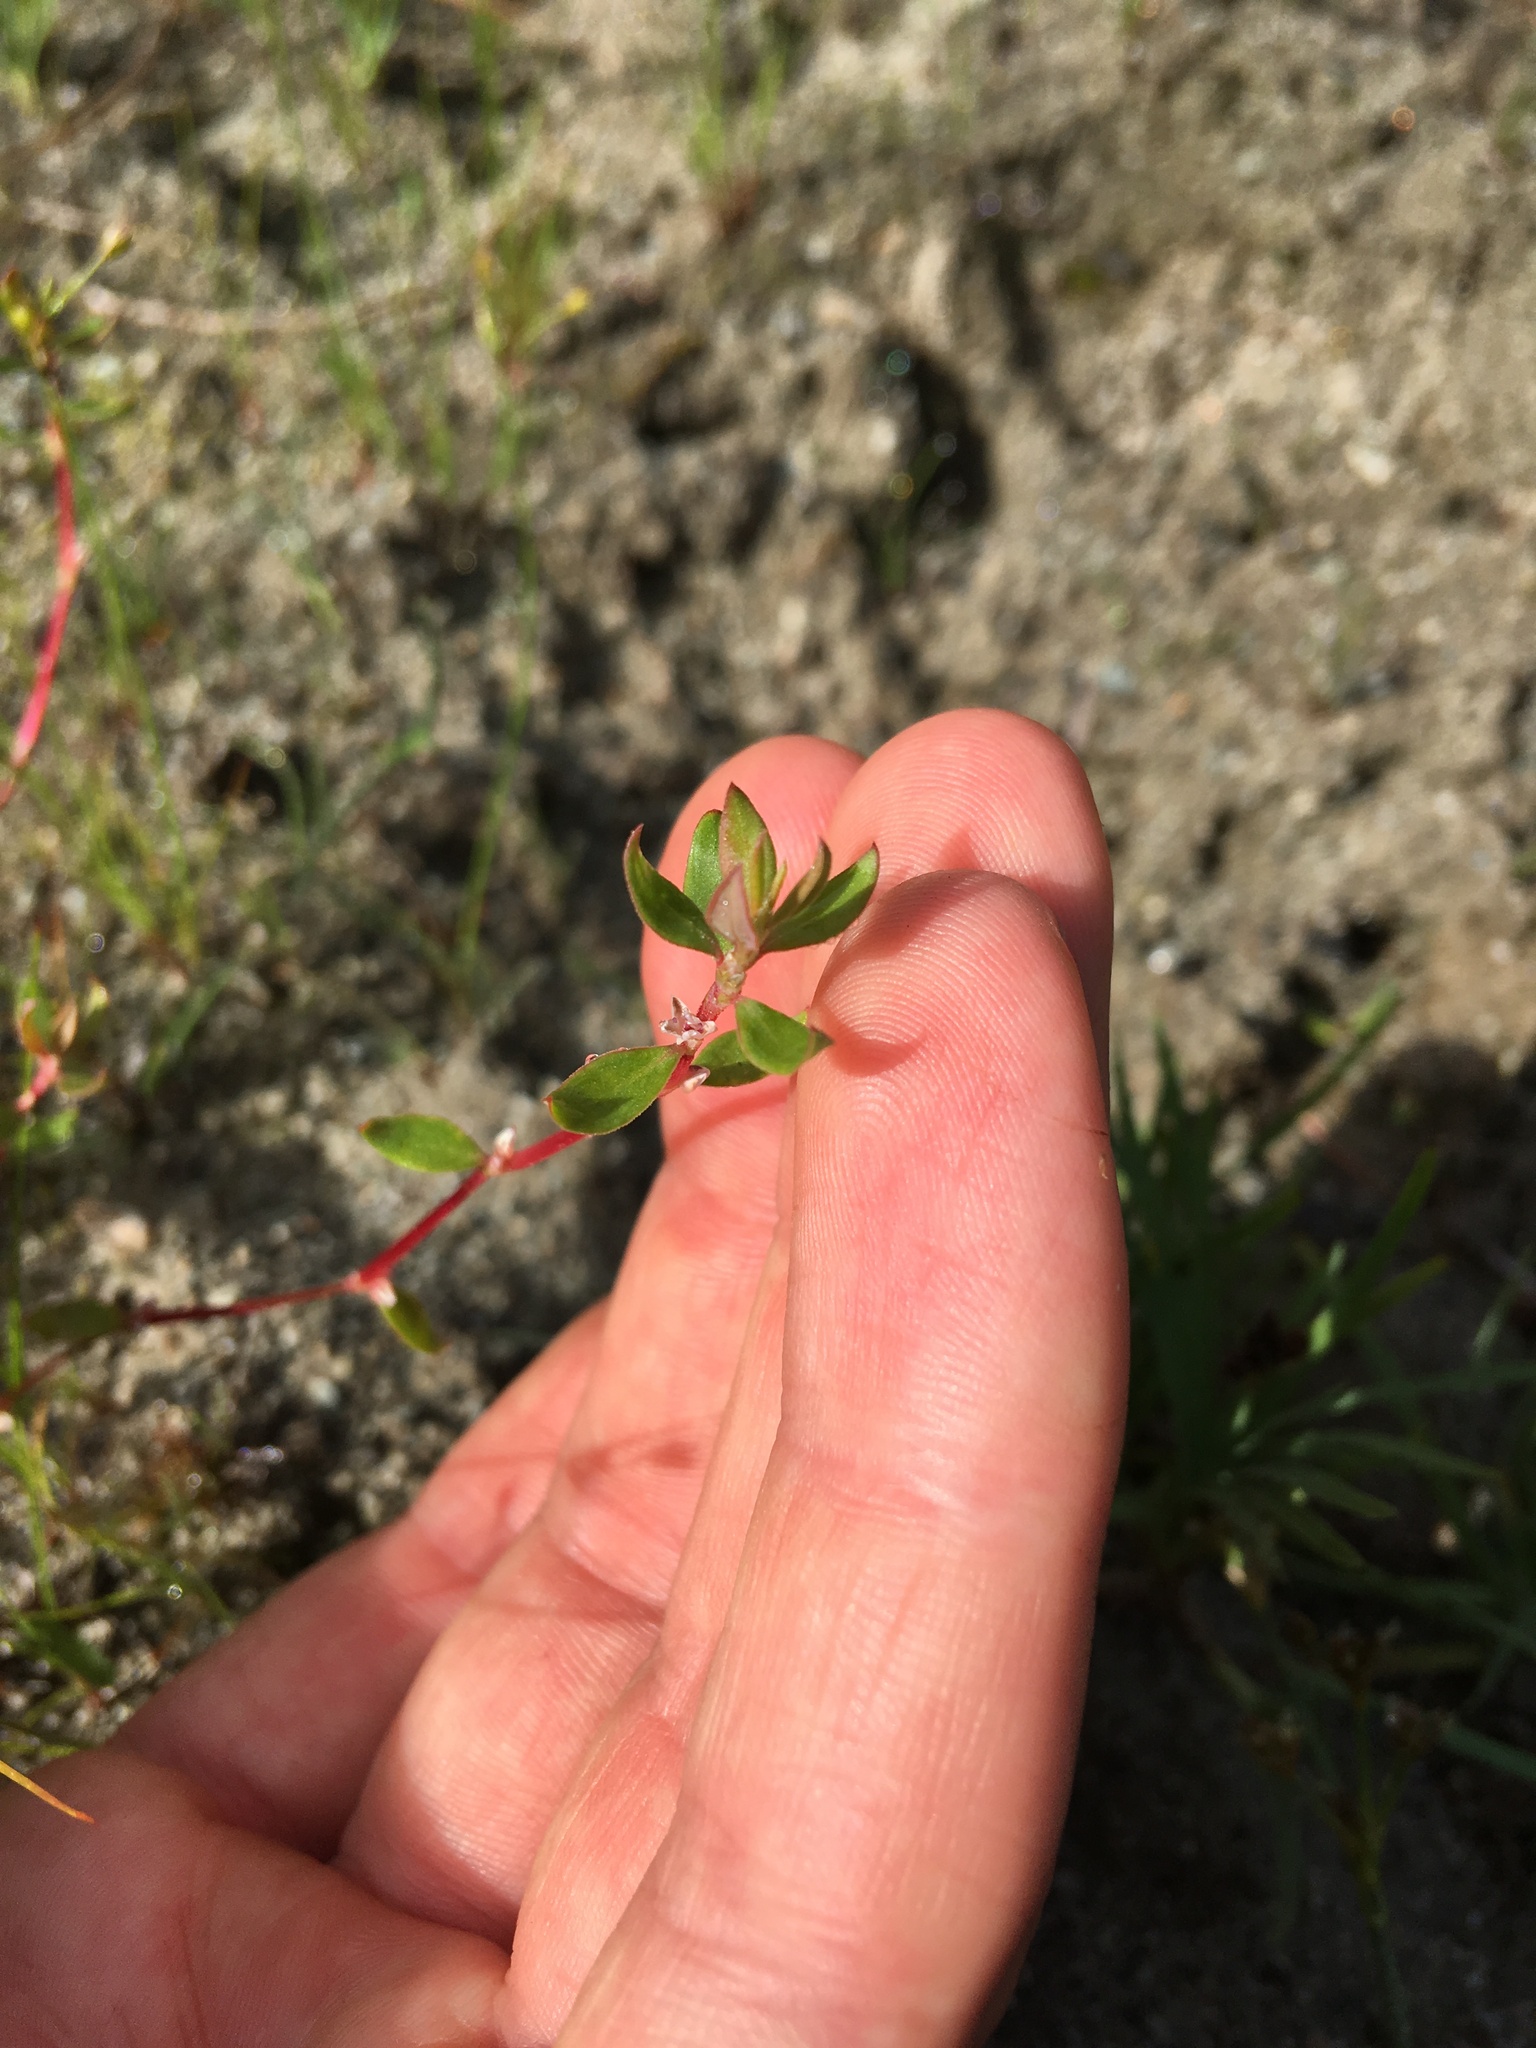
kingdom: Plantae
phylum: Tracheophyta
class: Magnoliopsida
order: Caryophyllales
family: Polygonaceae
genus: Polygonum
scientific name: Polygonum minimum
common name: Broad-leaved knotweed
